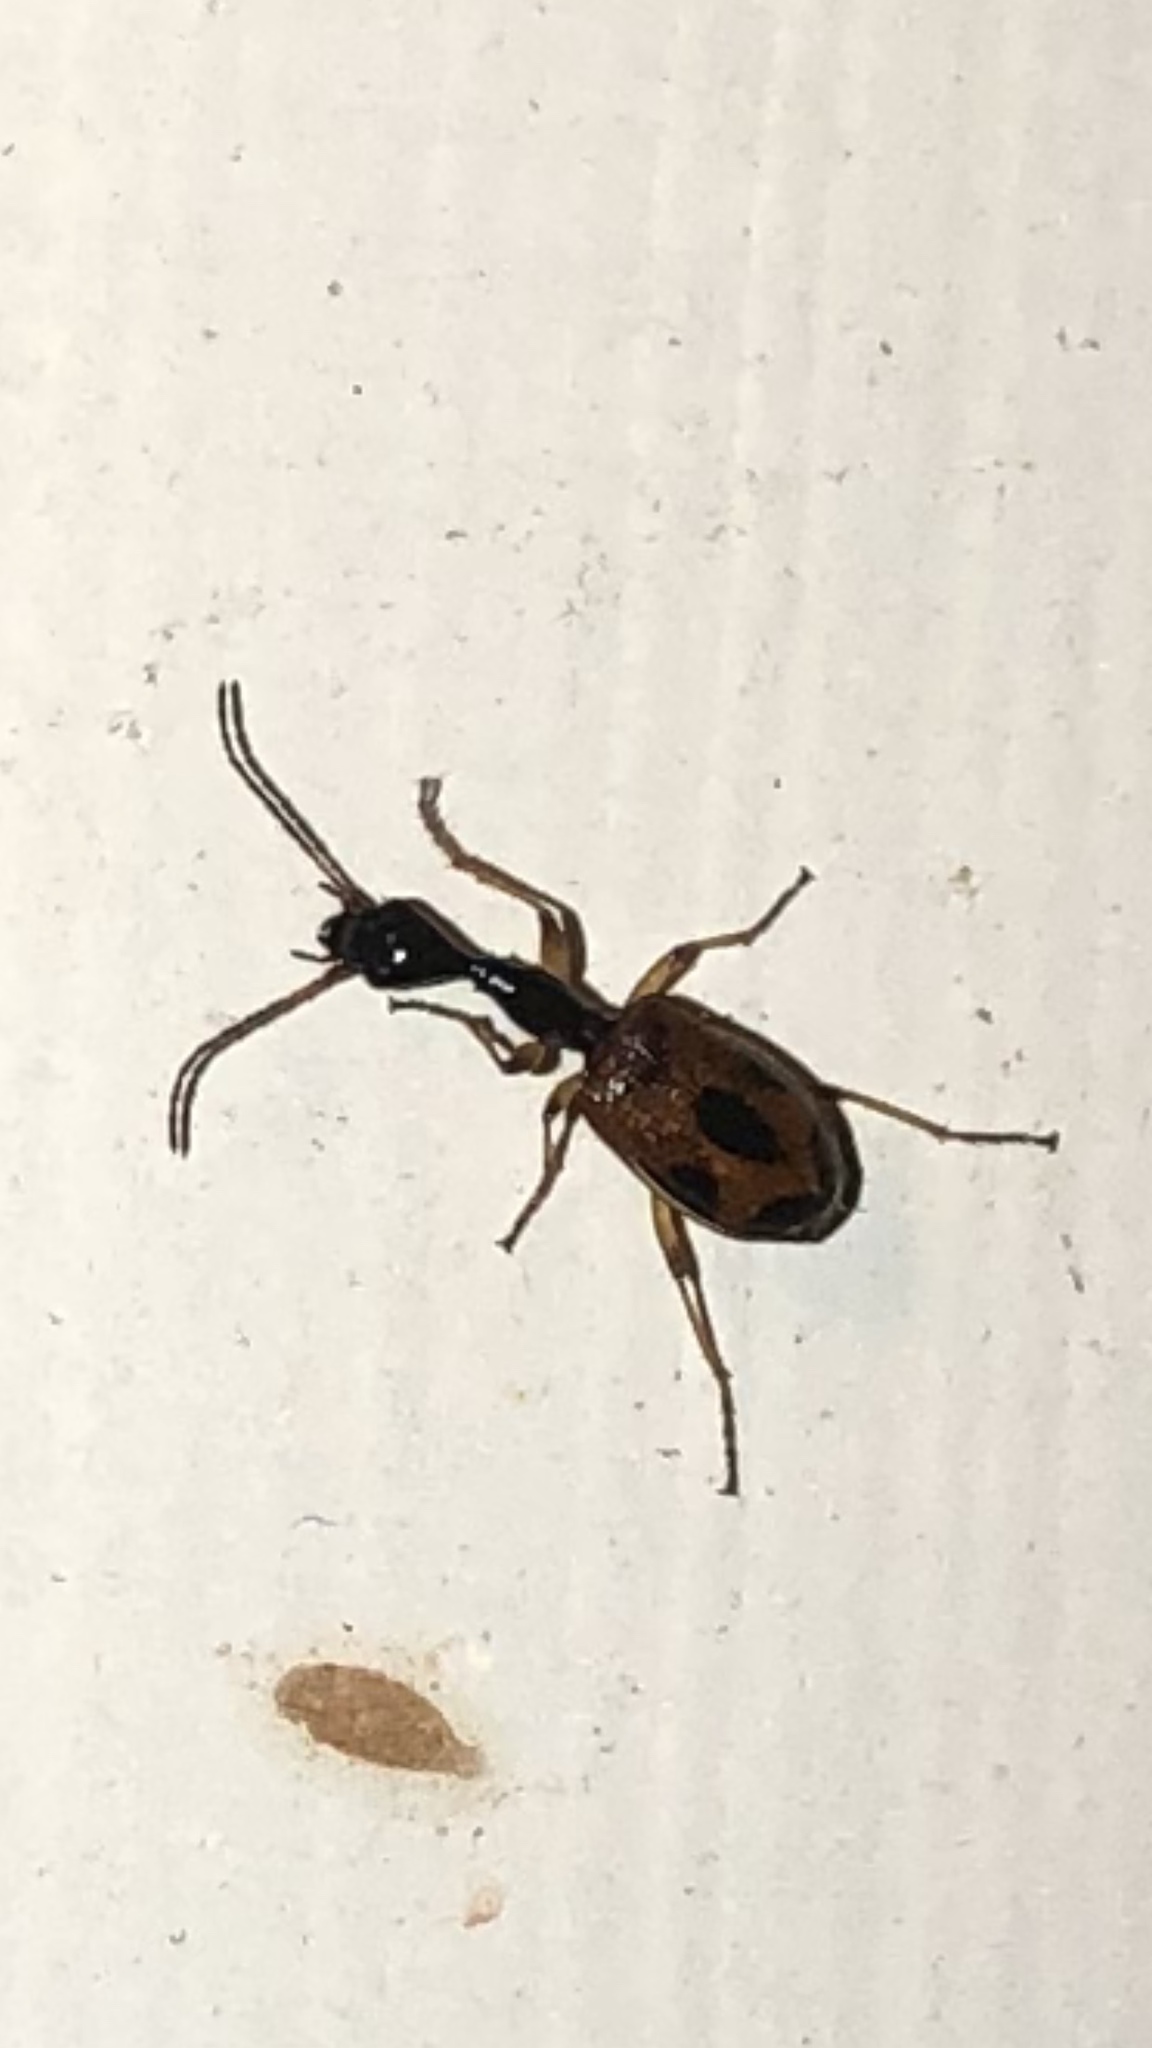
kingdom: Animalia
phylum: Arthropoda
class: Insecta
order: Coleoptera
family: Carabidae
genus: Colliuris
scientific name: Colliuris pensylvanica
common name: Long-necked ground beetle
